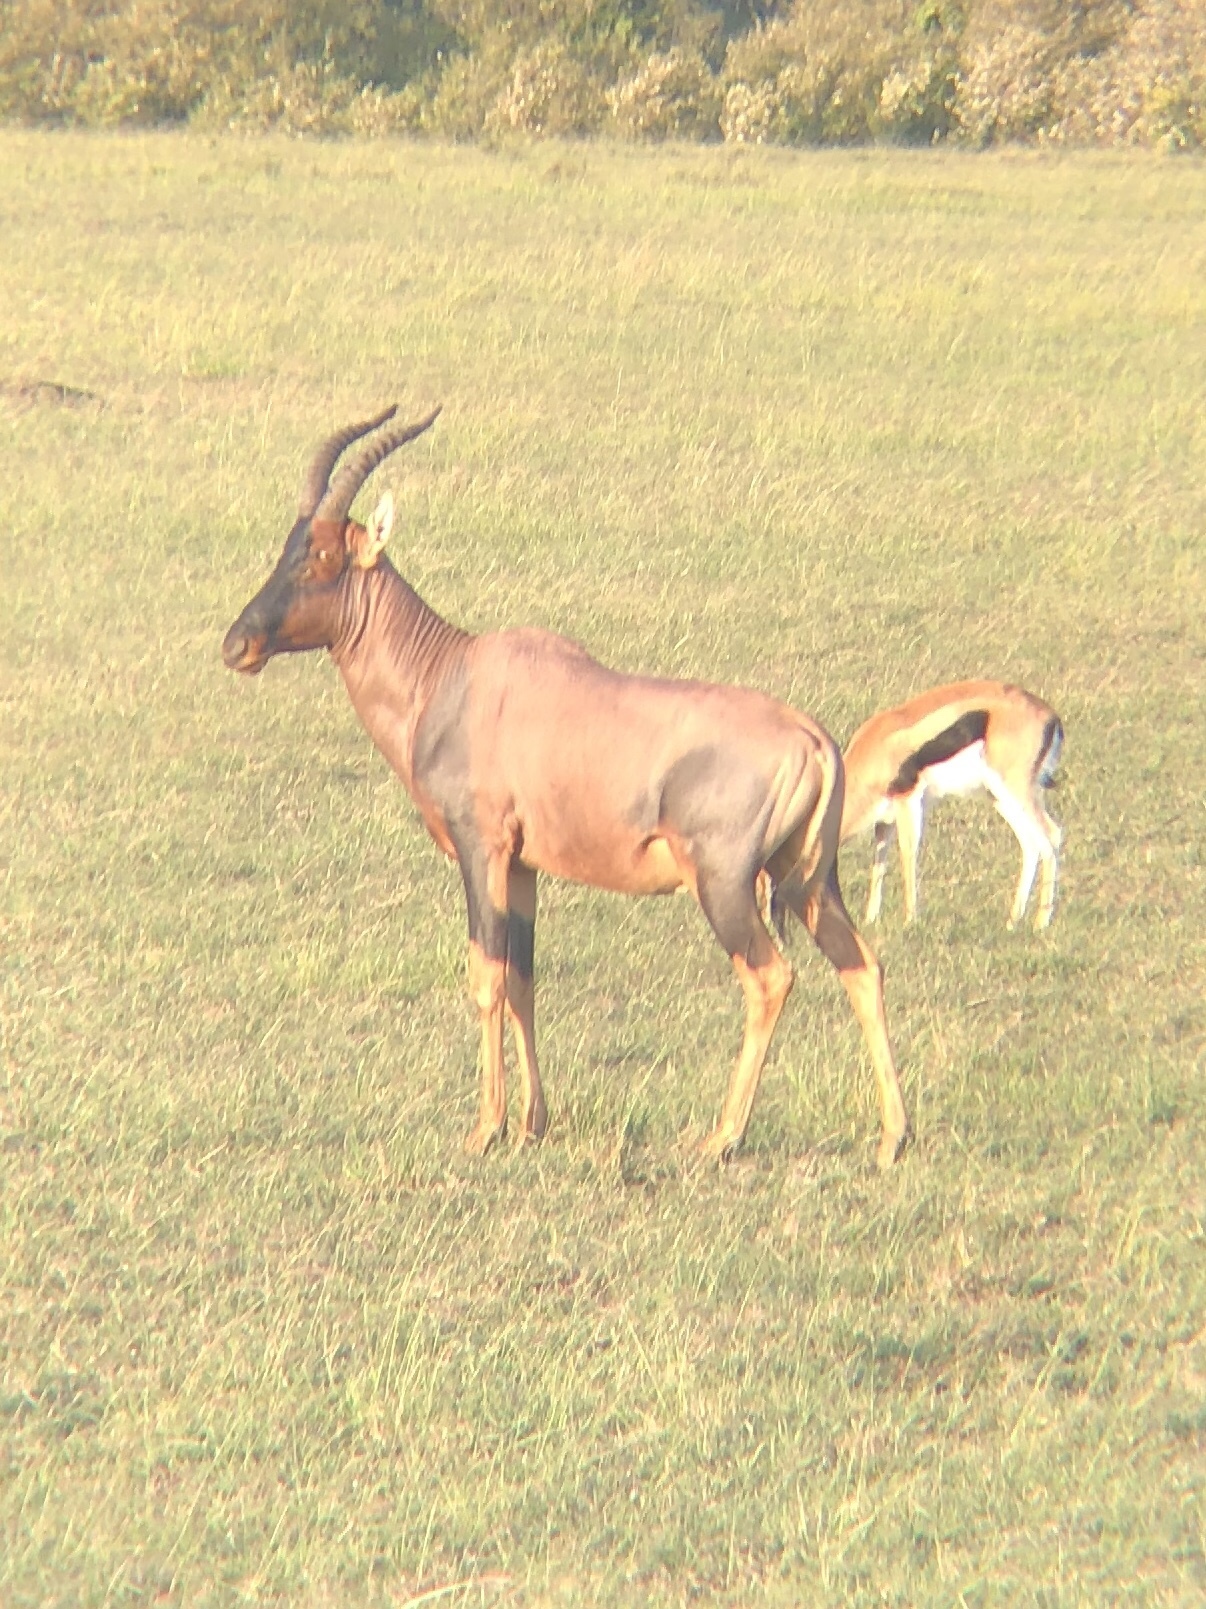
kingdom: Animalia
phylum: Chordata
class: Mammalia
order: Artiodactyla
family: Bovidae
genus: Damaliscus
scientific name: Damaliscus korrigum
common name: Topi
